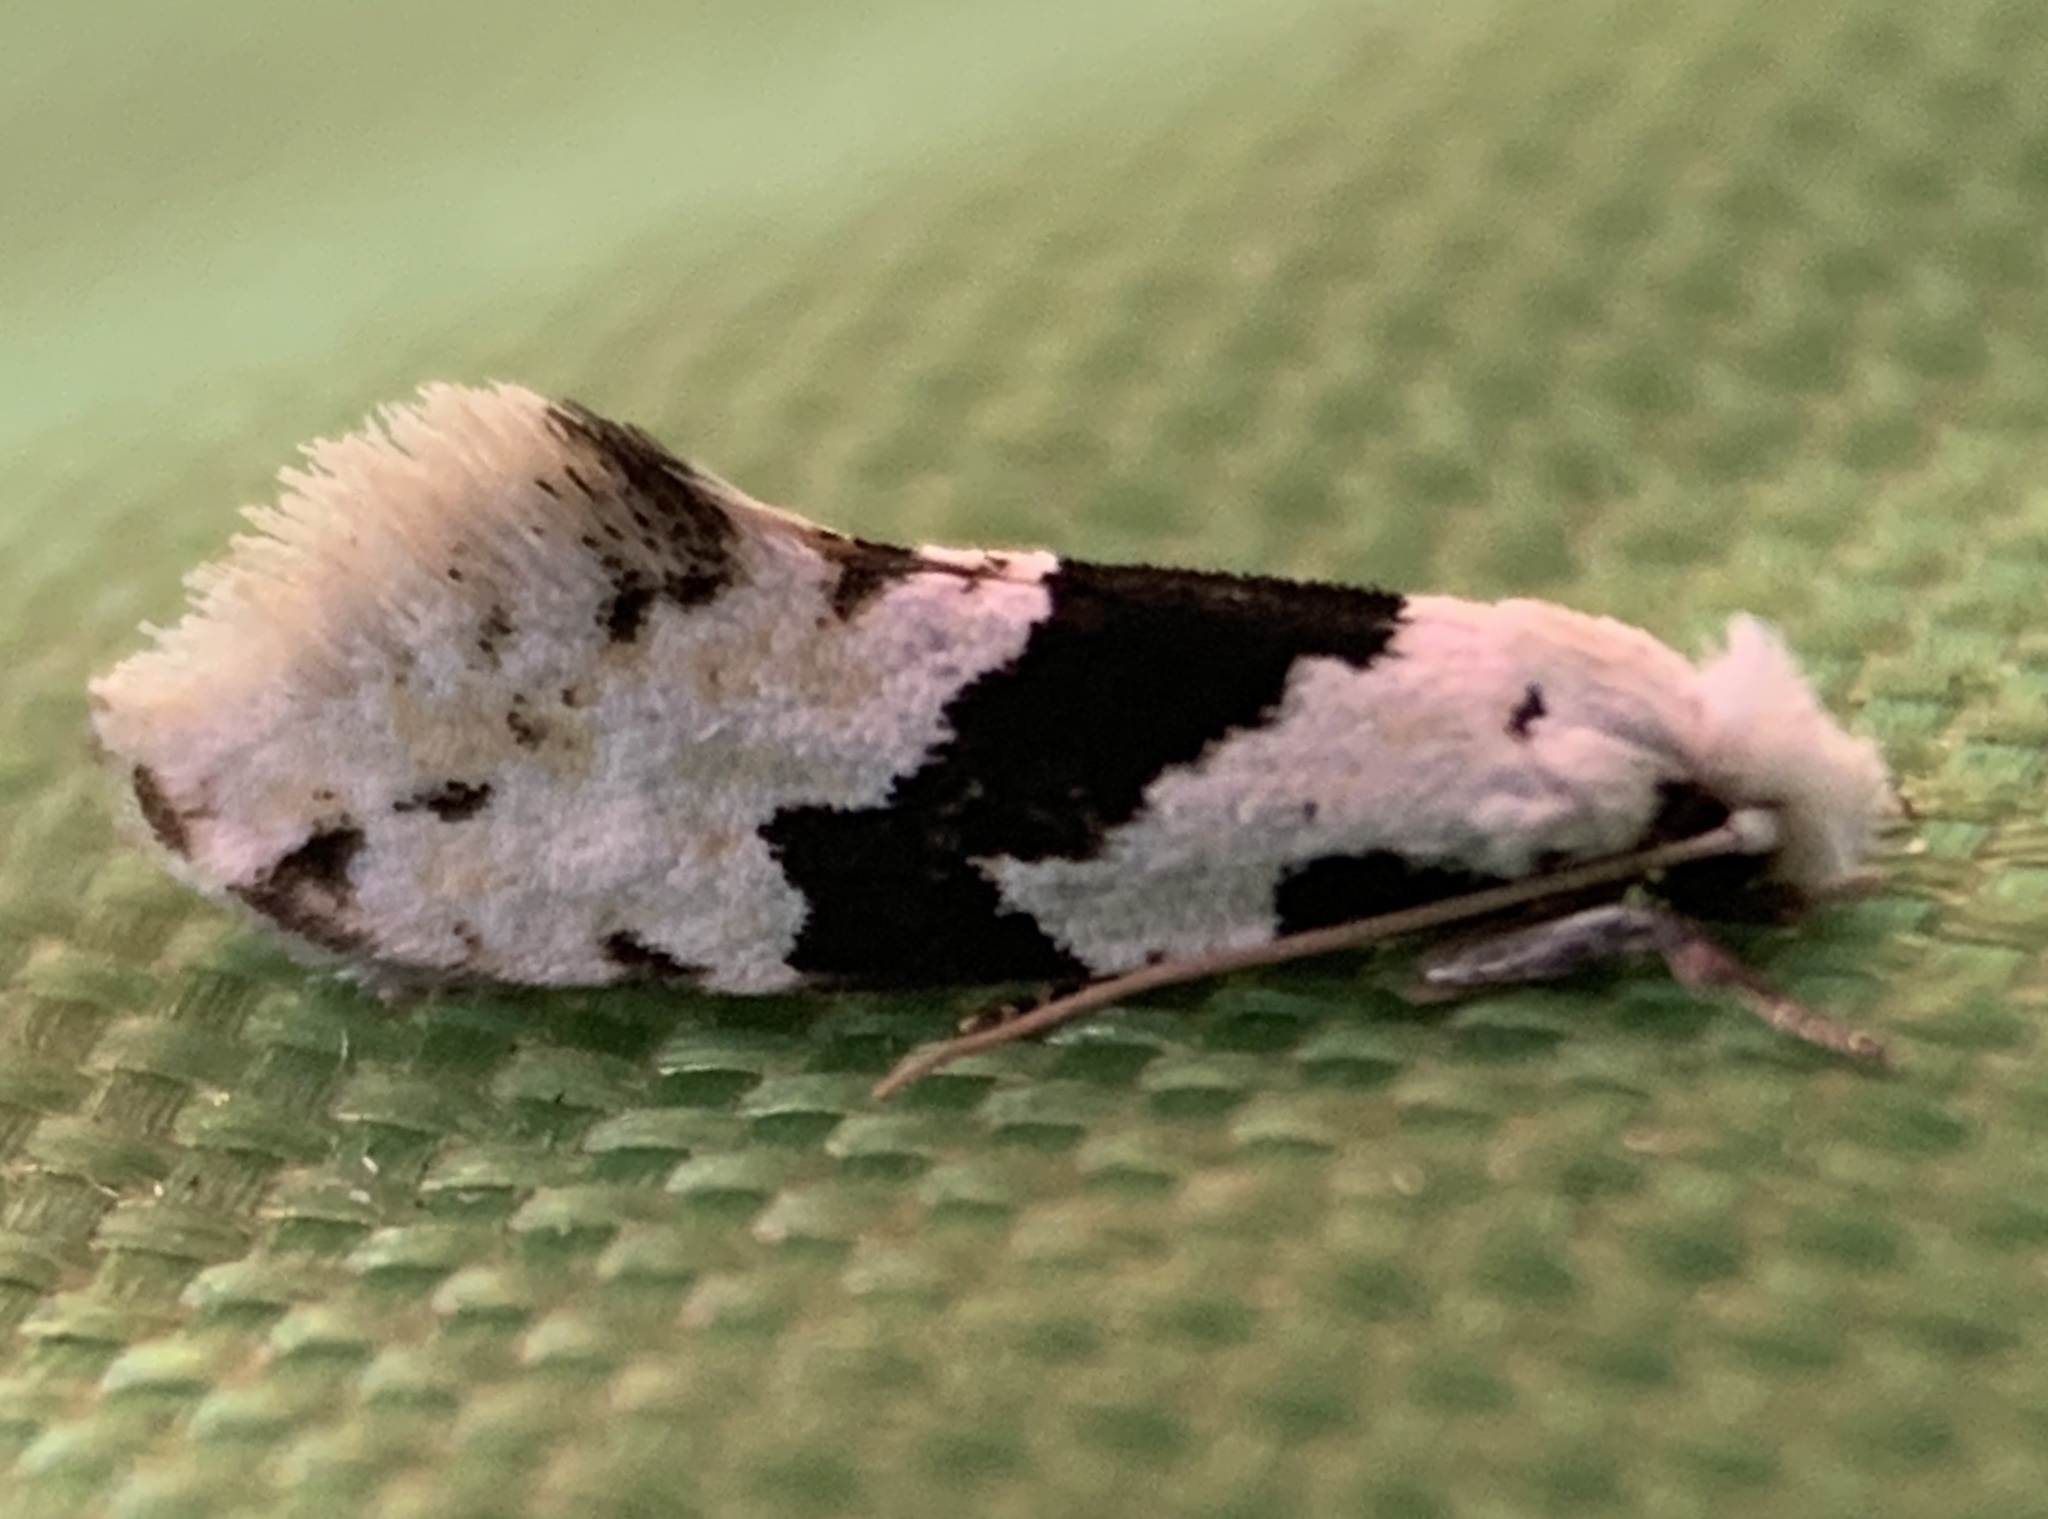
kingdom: Animalia
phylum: Arthropoda
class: Insecta
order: Lepidoptera
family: Tineidae
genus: Nemapogon
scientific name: Nemapogon clematella
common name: Barred white clothes
